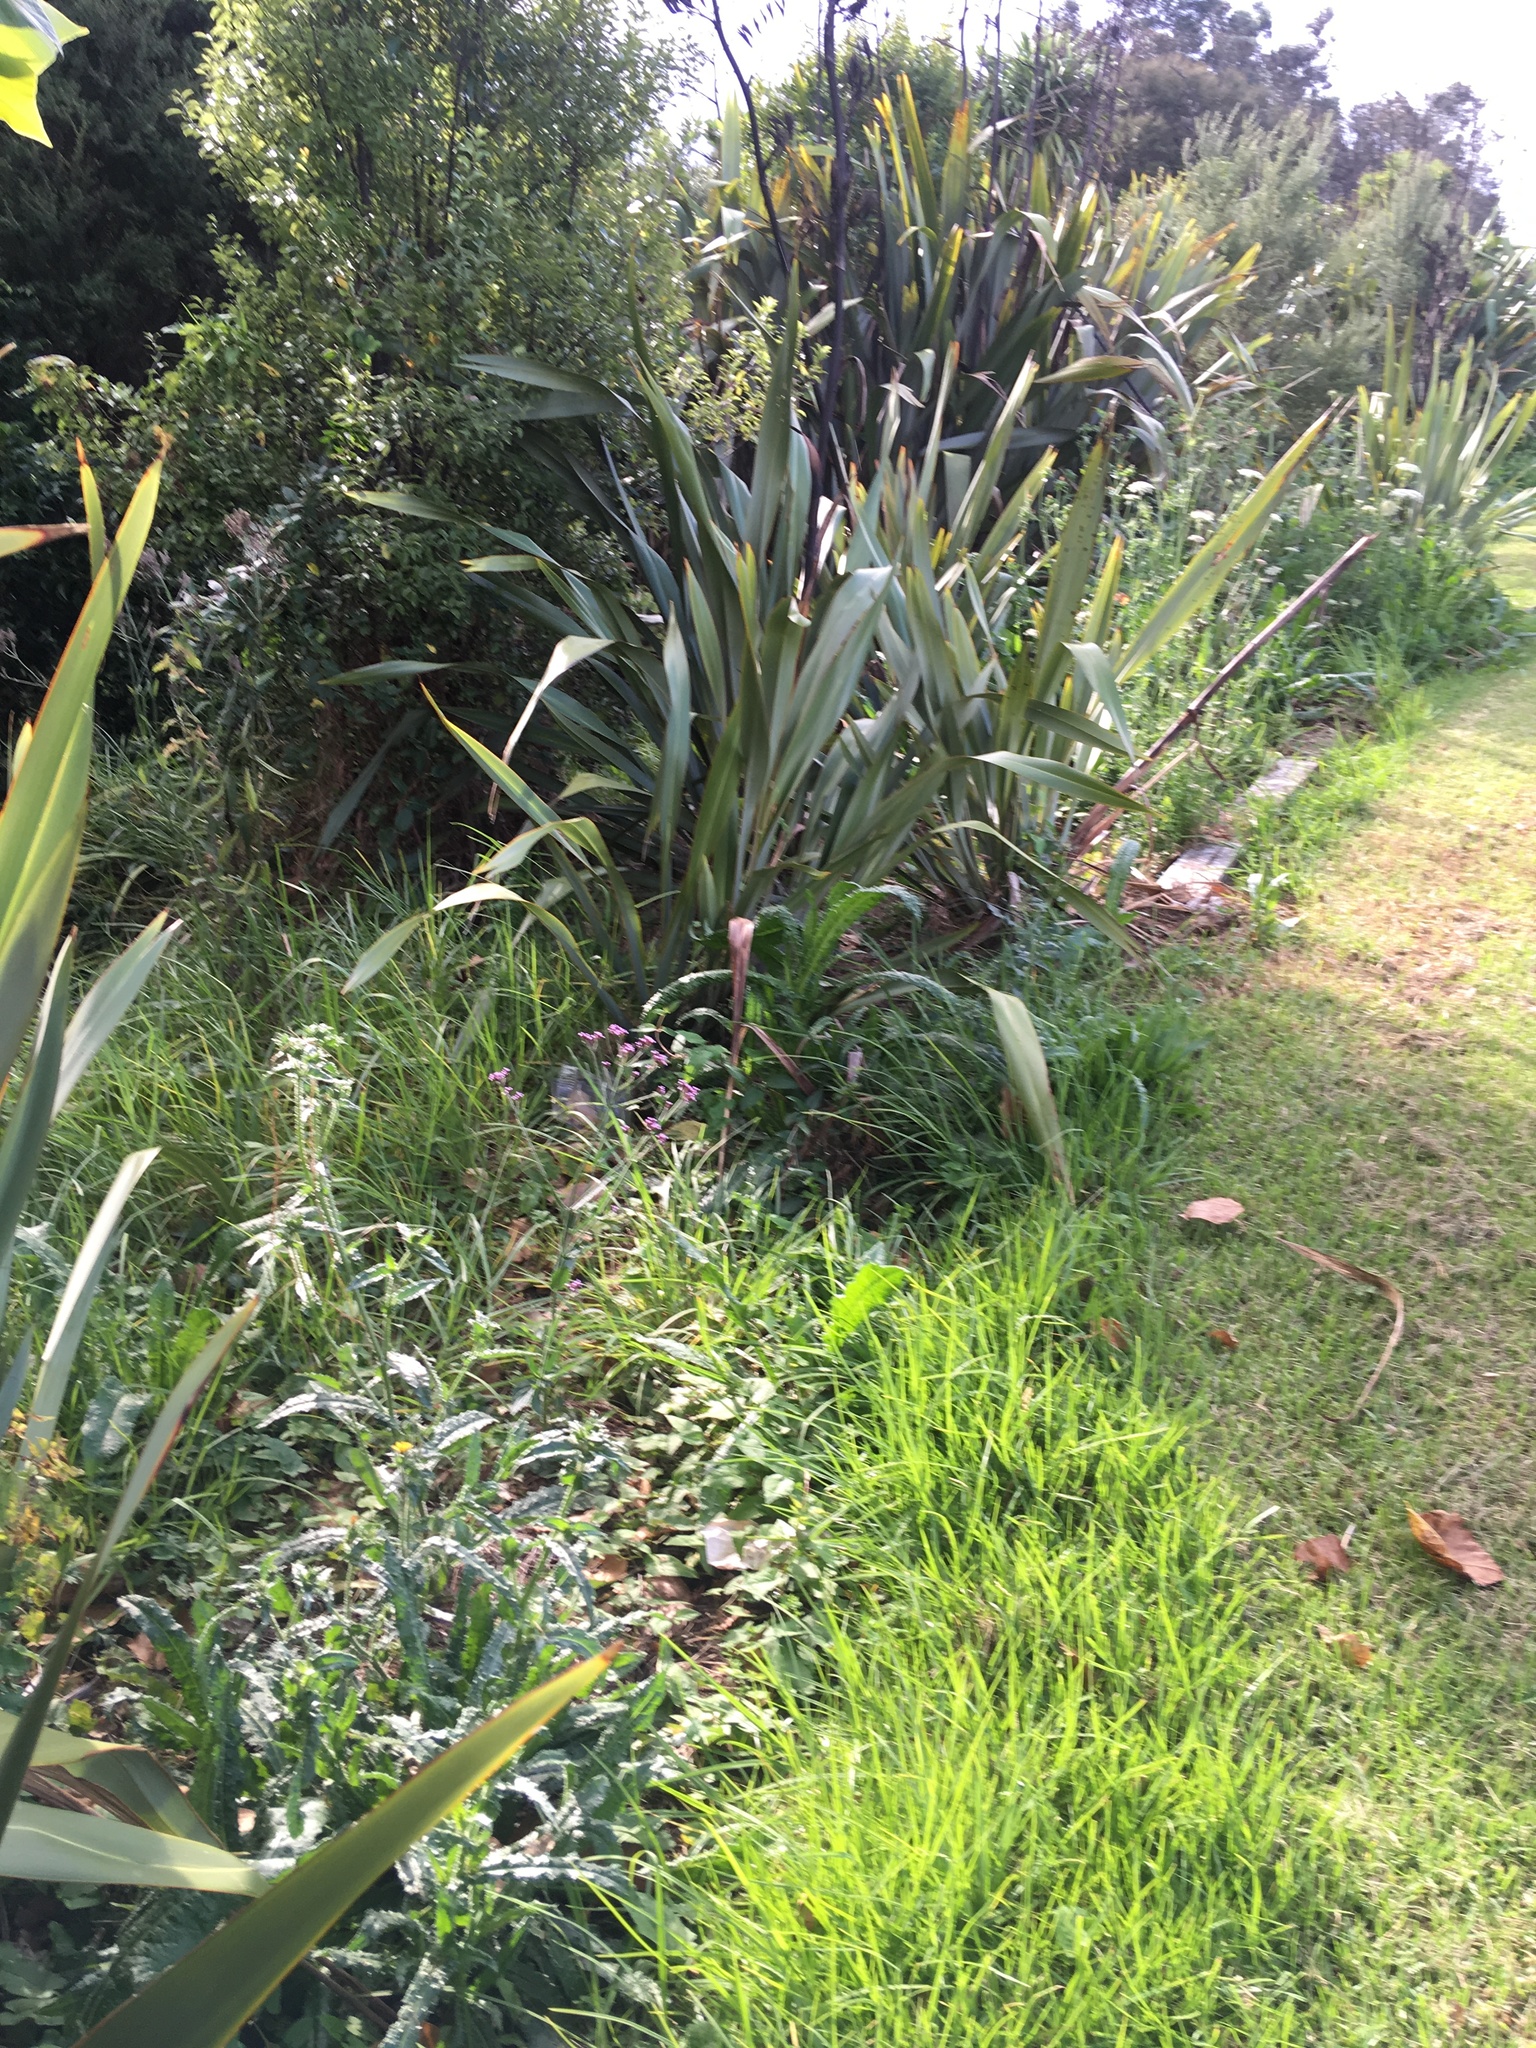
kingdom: Plantae
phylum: Tracheophyta
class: Liliopsida
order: Poales
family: Poaceae
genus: Cenchrus
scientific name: Cenchrus clandestinus
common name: Kikuyugrass
